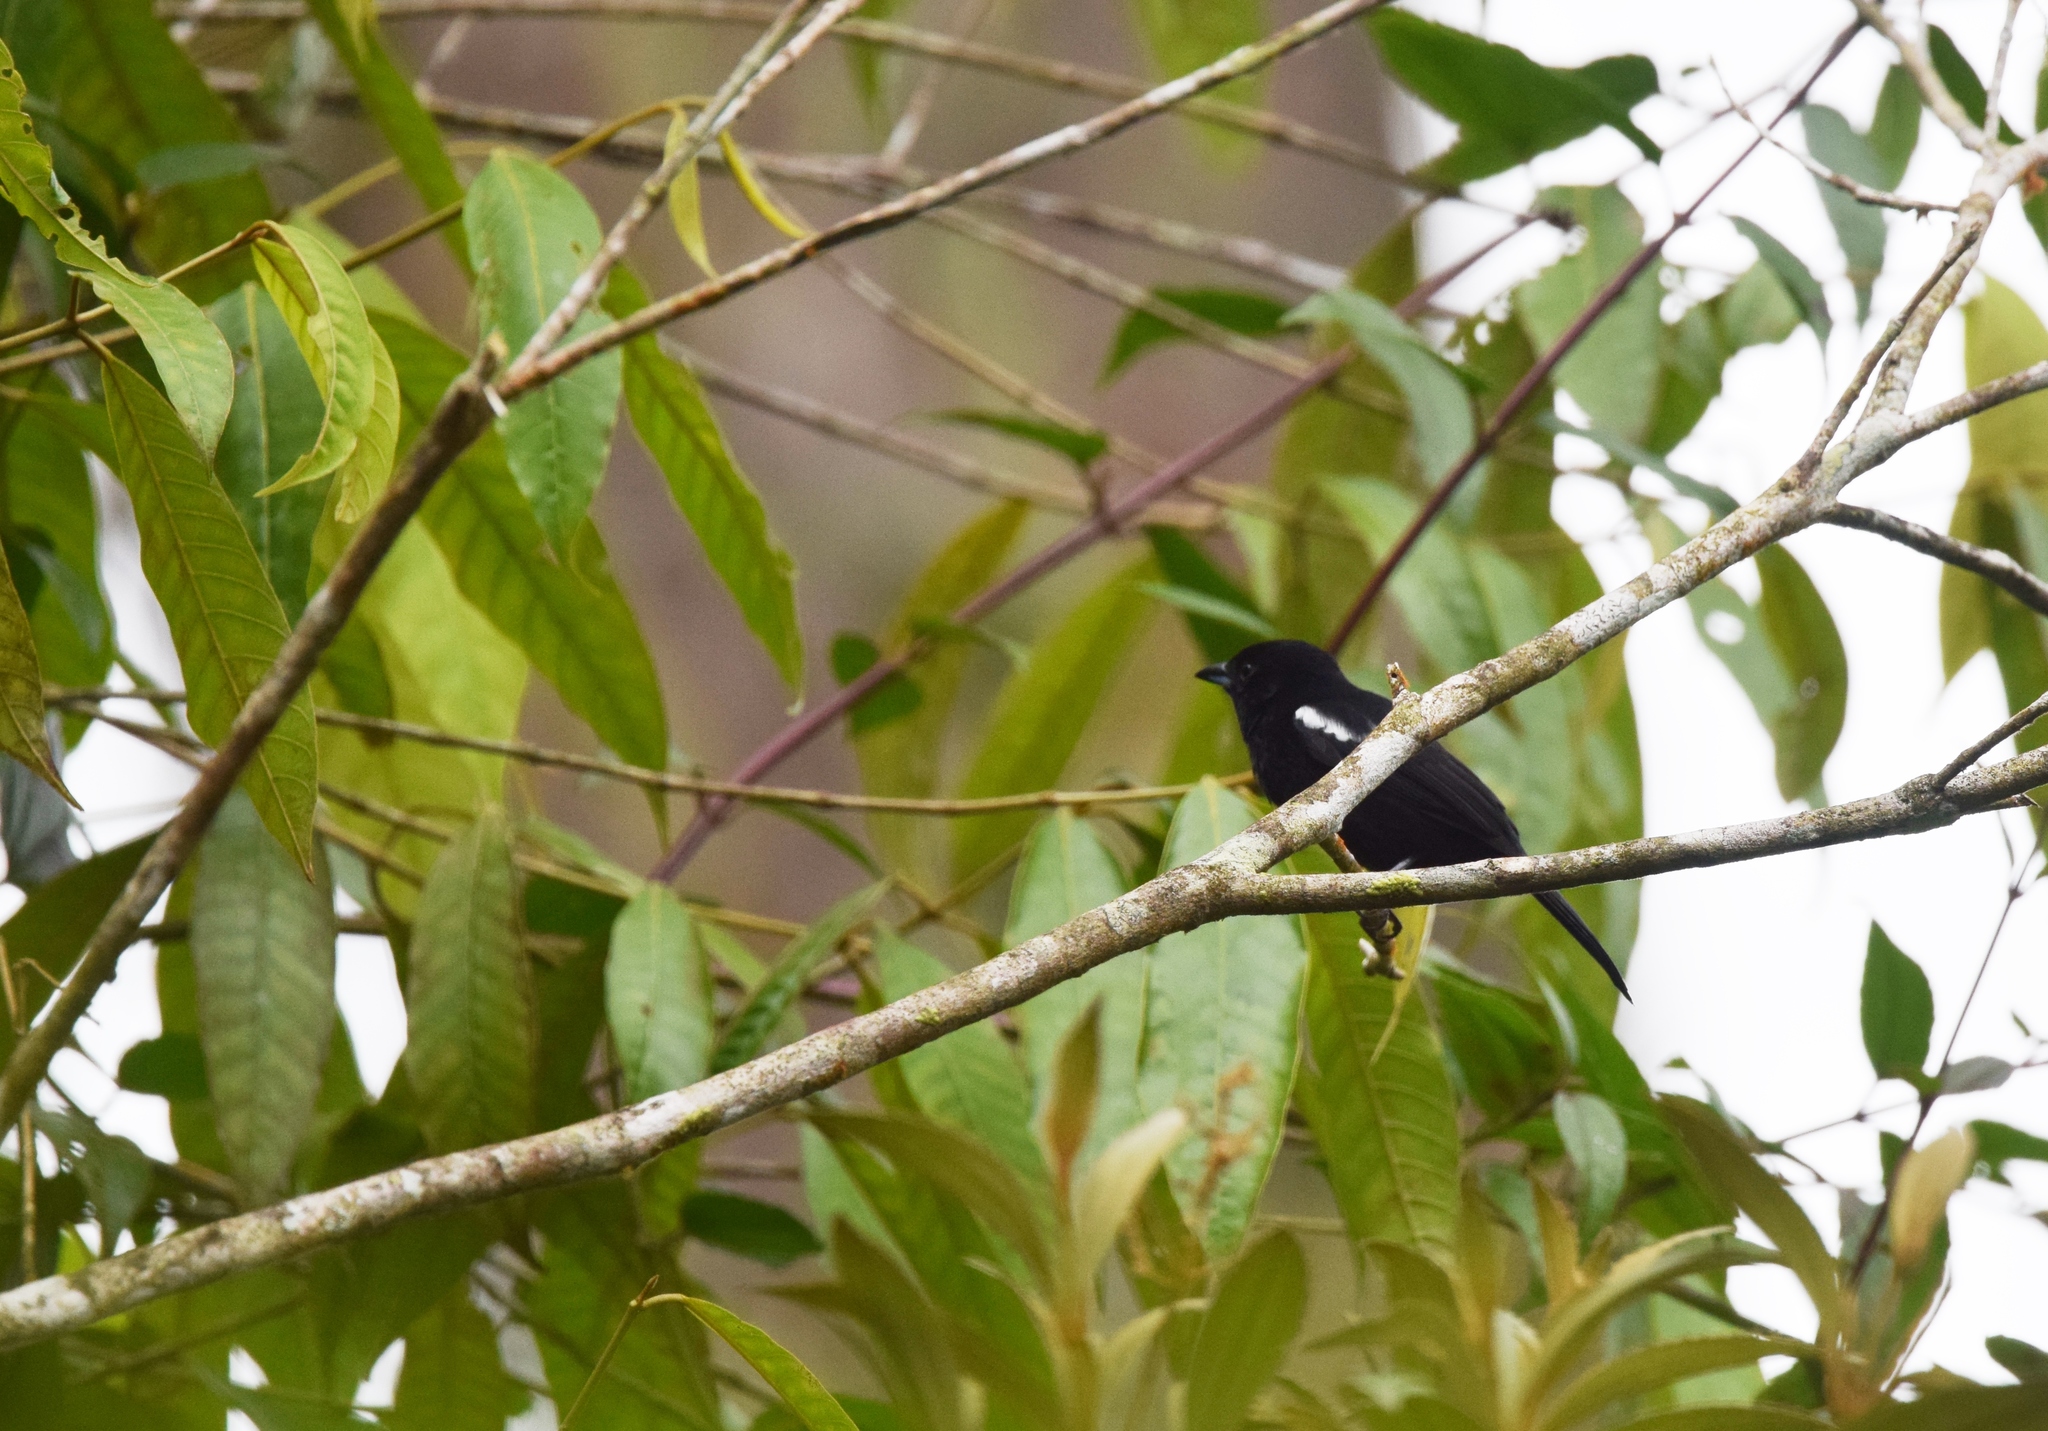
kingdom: Animalia
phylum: Chordata
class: Aves
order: Passeriformes
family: Thraupidae
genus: Loriotus
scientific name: Loriotus luctuosus
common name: White-shouldered tanager
